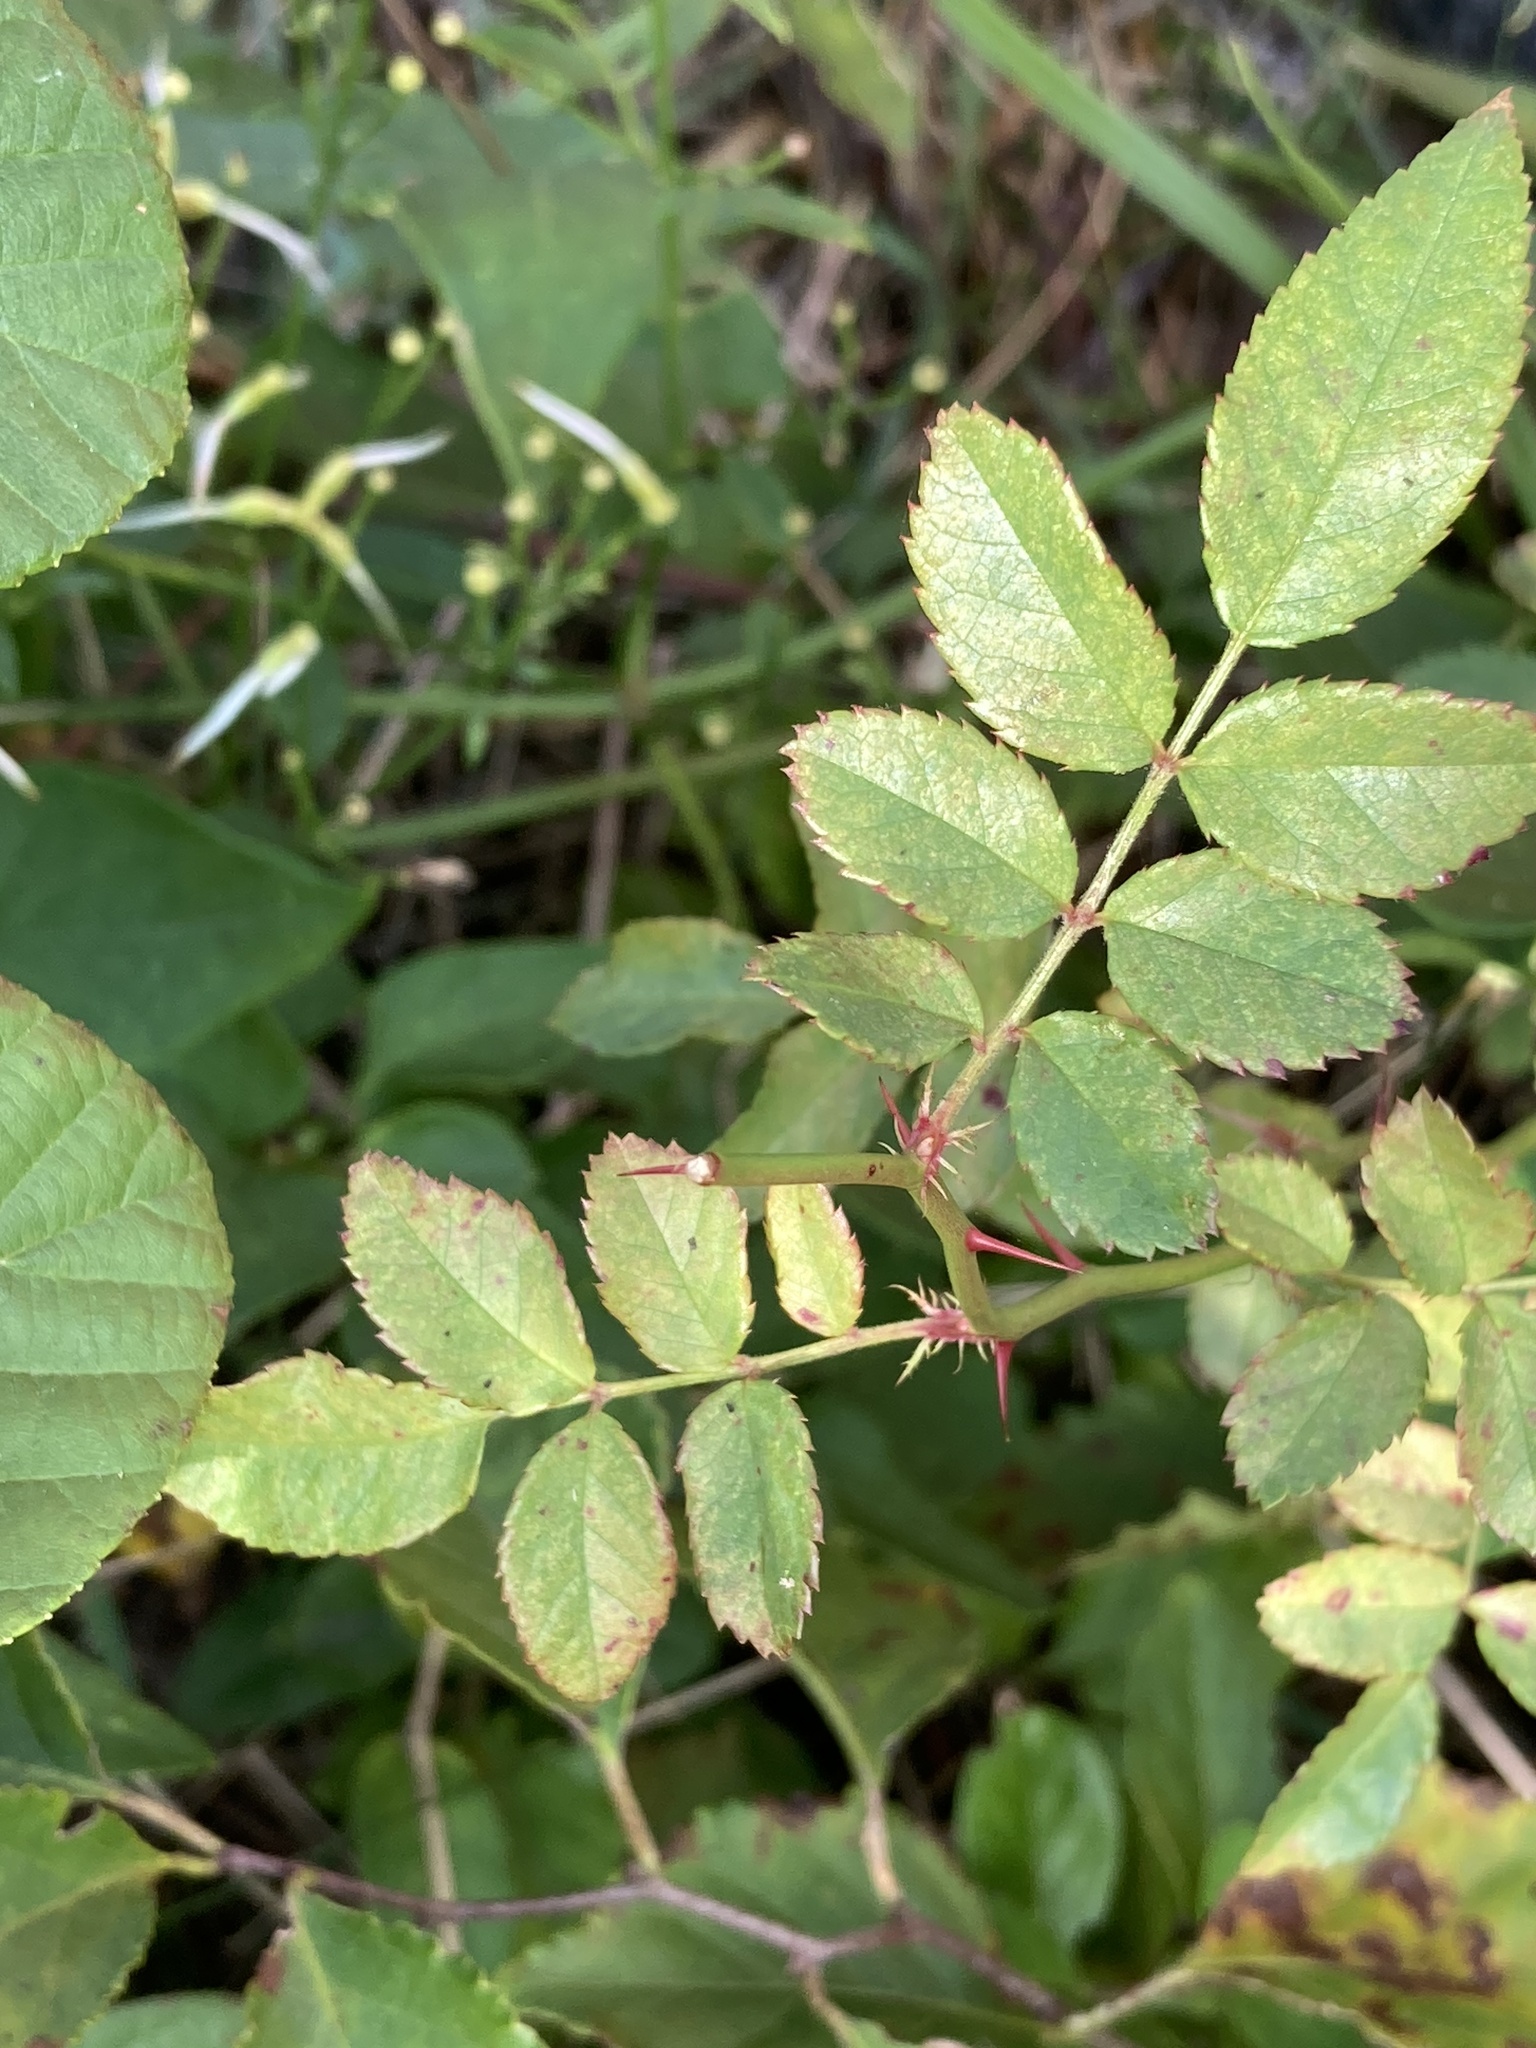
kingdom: Plantae
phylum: Tracheophyta
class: Magnoliopsida
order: Rosales
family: Rosaceae
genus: Rosa
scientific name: Rosa multiflora
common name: Multiflora rose
